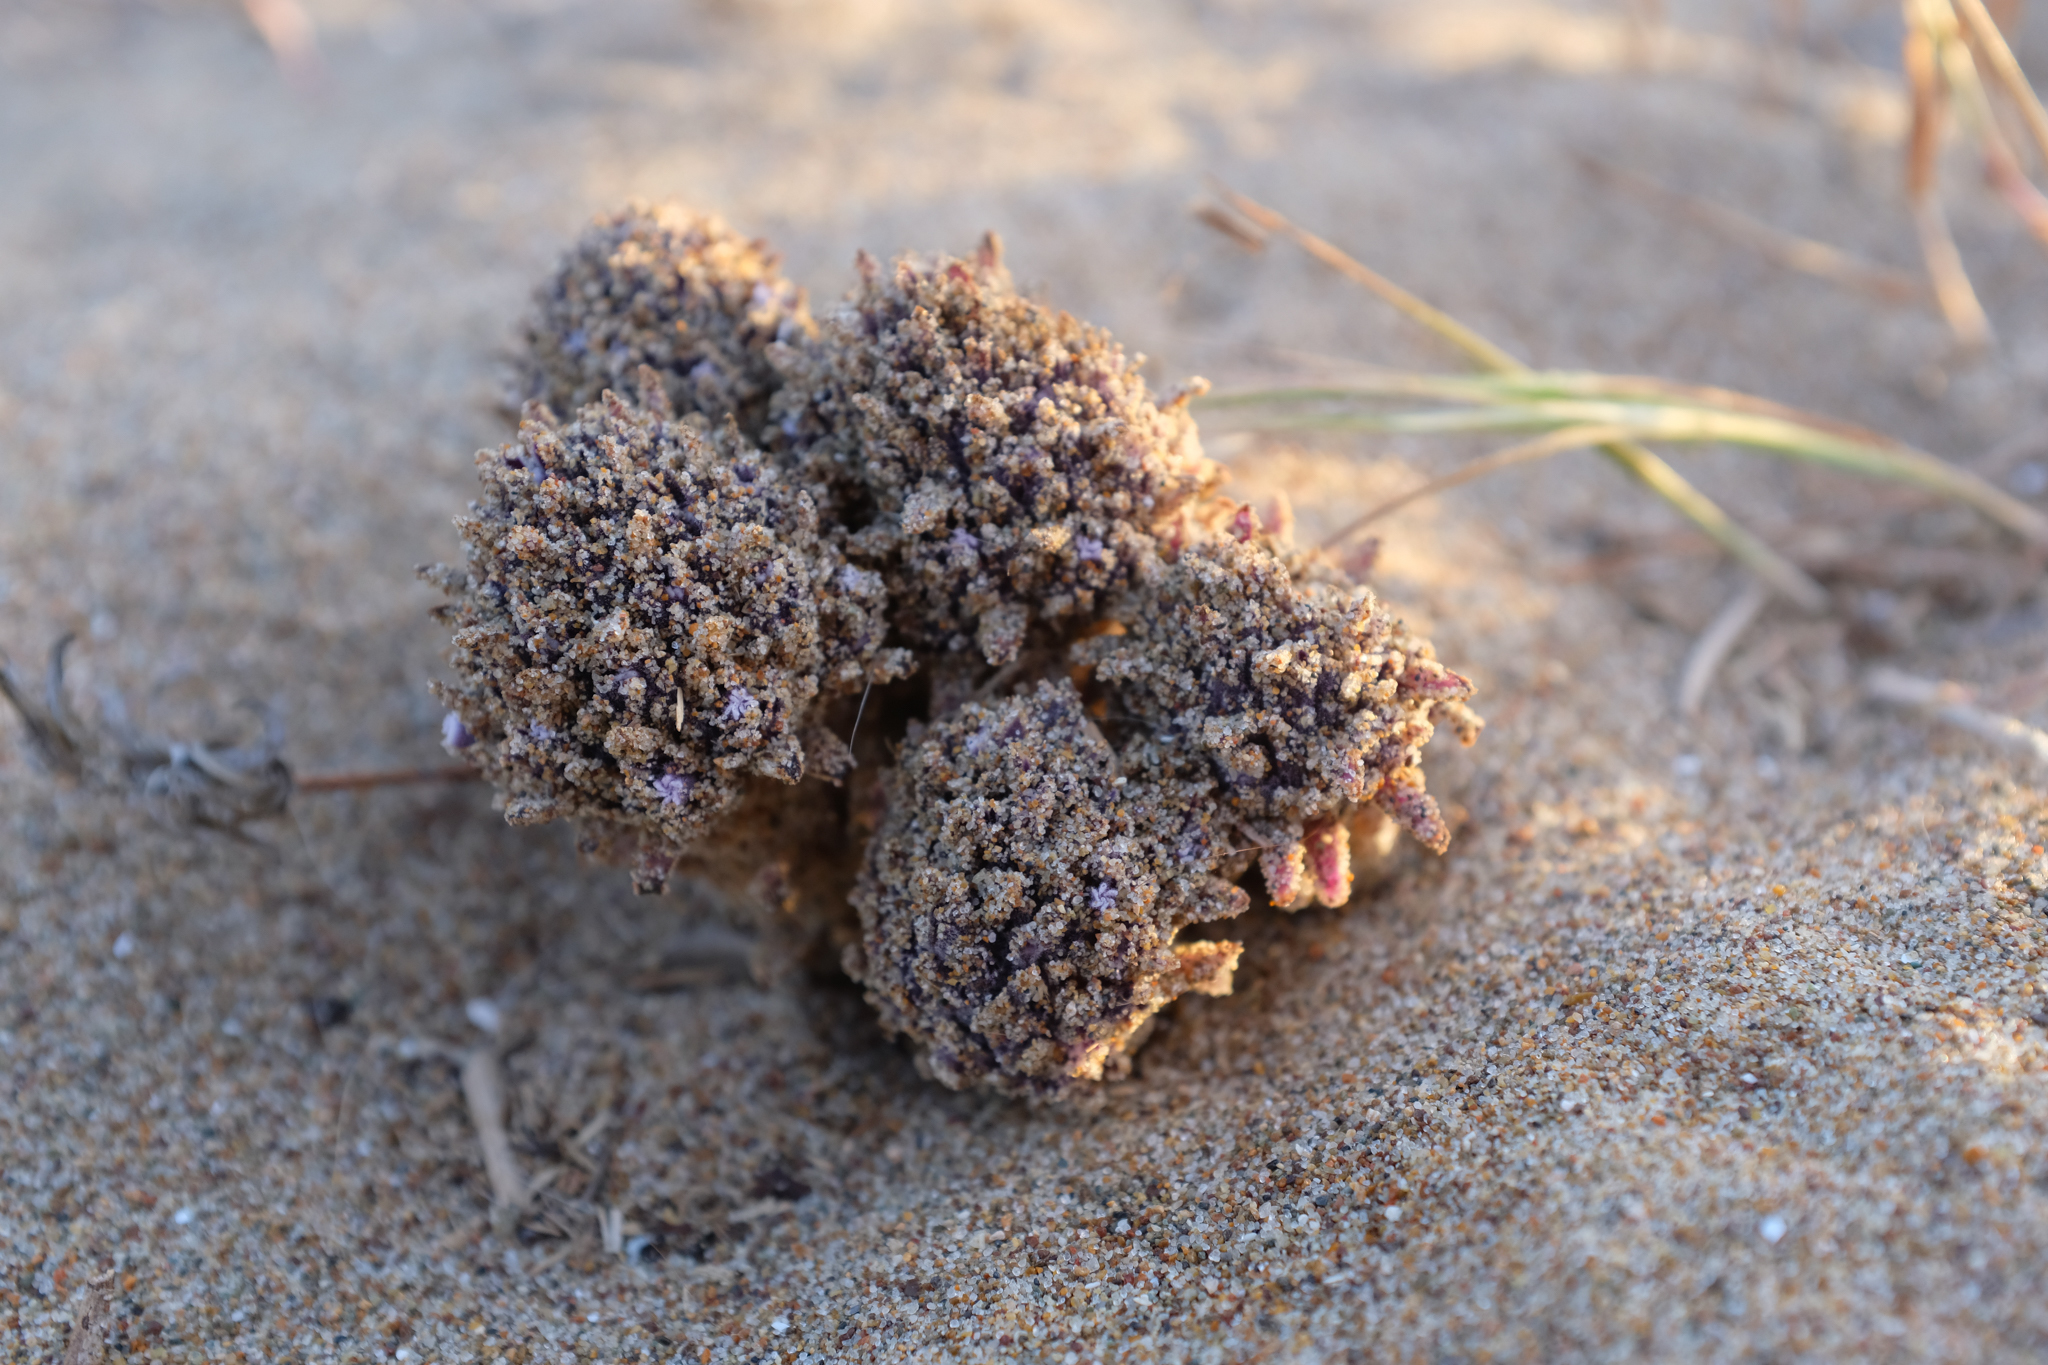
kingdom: Plantae
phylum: Tracheophyta
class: Magnoliopsida
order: Boraginales
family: Lennoaceae
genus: Pholisma
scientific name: Pholisma arenarium
